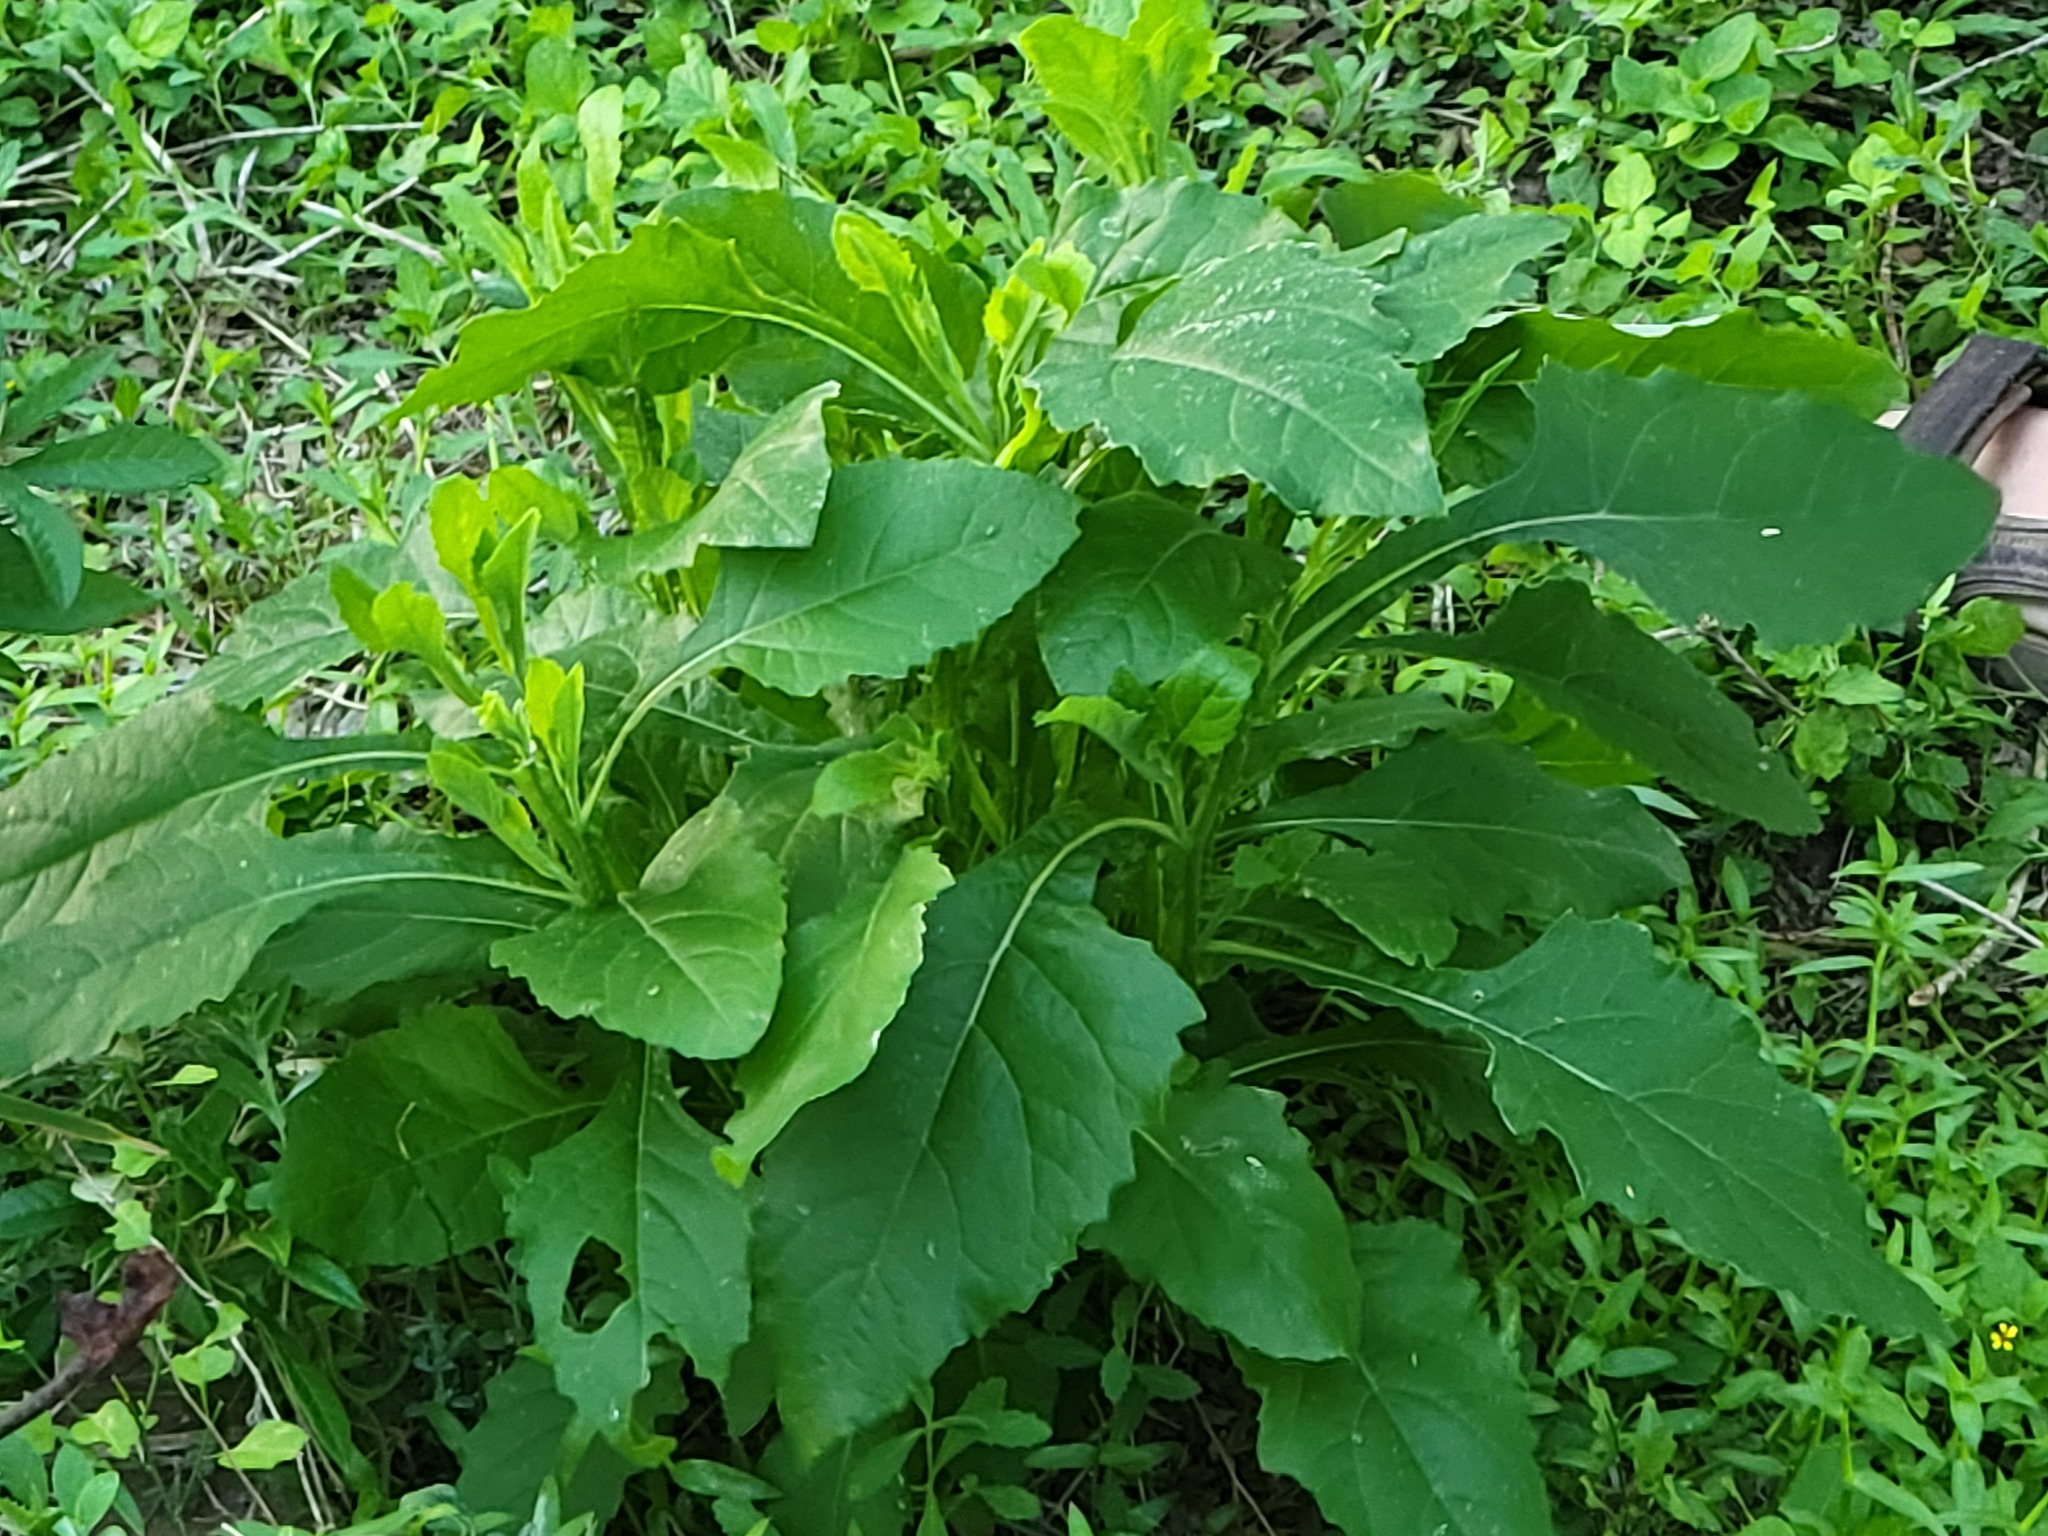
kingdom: Plantae
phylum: Tracheophyta
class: Magnoliopsida
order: Asterales
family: Asteraceae
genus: Verbesina
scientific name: Verbesina microptera
